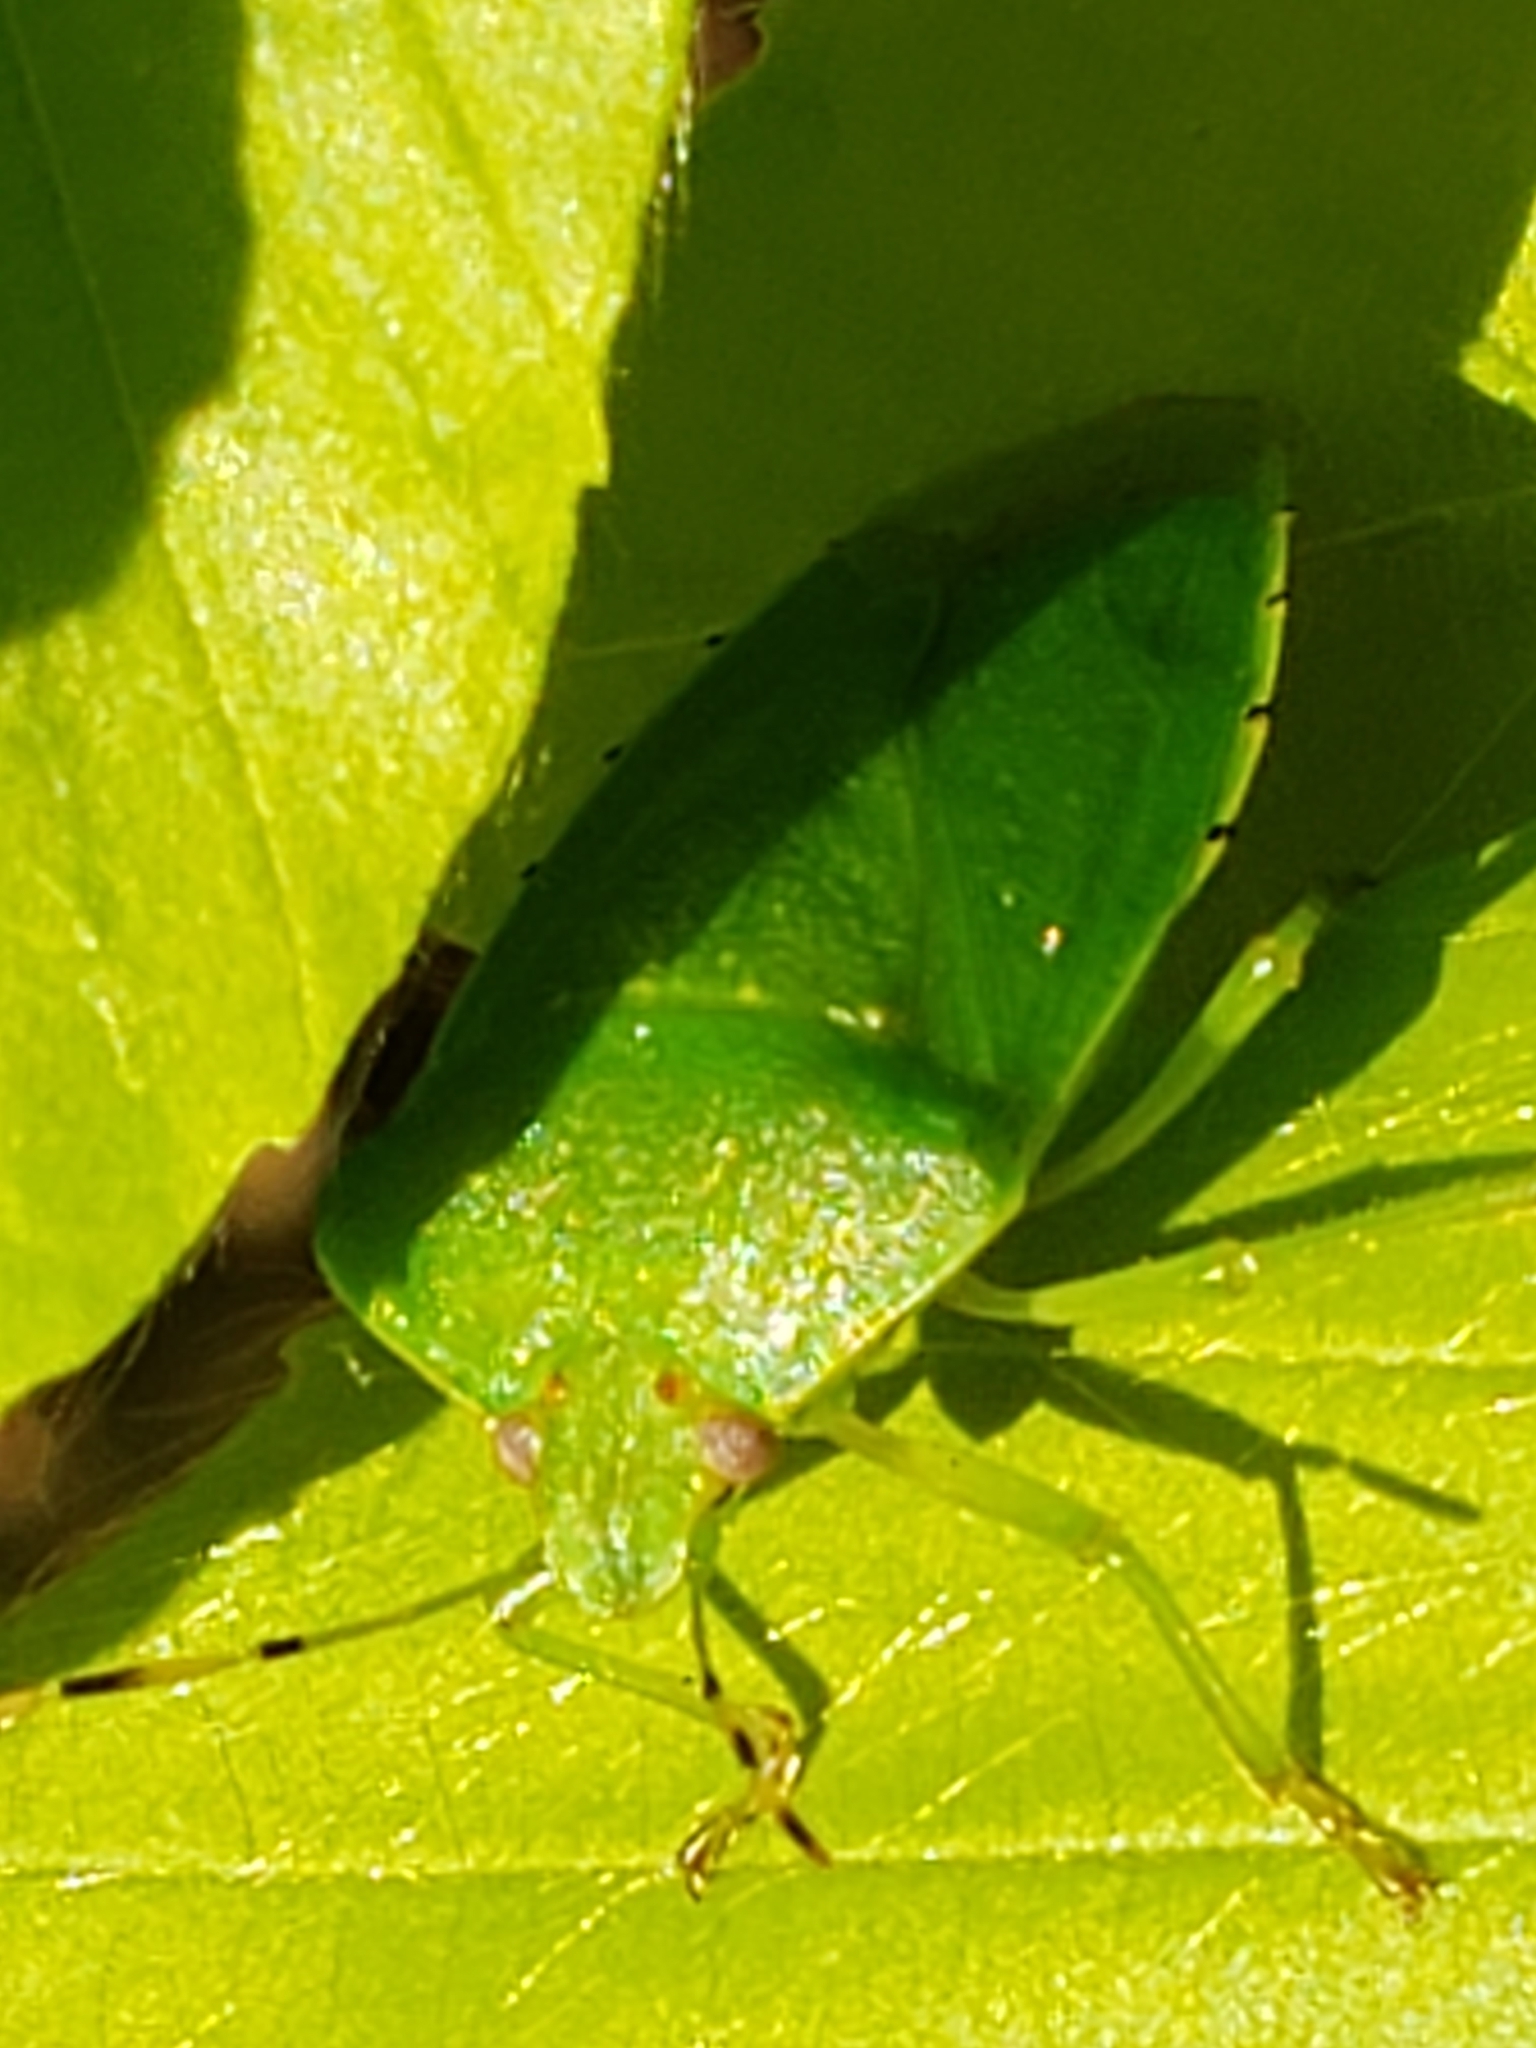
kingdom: Animalia
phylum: Arthropoda
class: Insecta
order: Hemiptera
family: Pentatomidae
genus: Chinavia
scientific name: Chinavia hilaris
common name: Green stink bug
